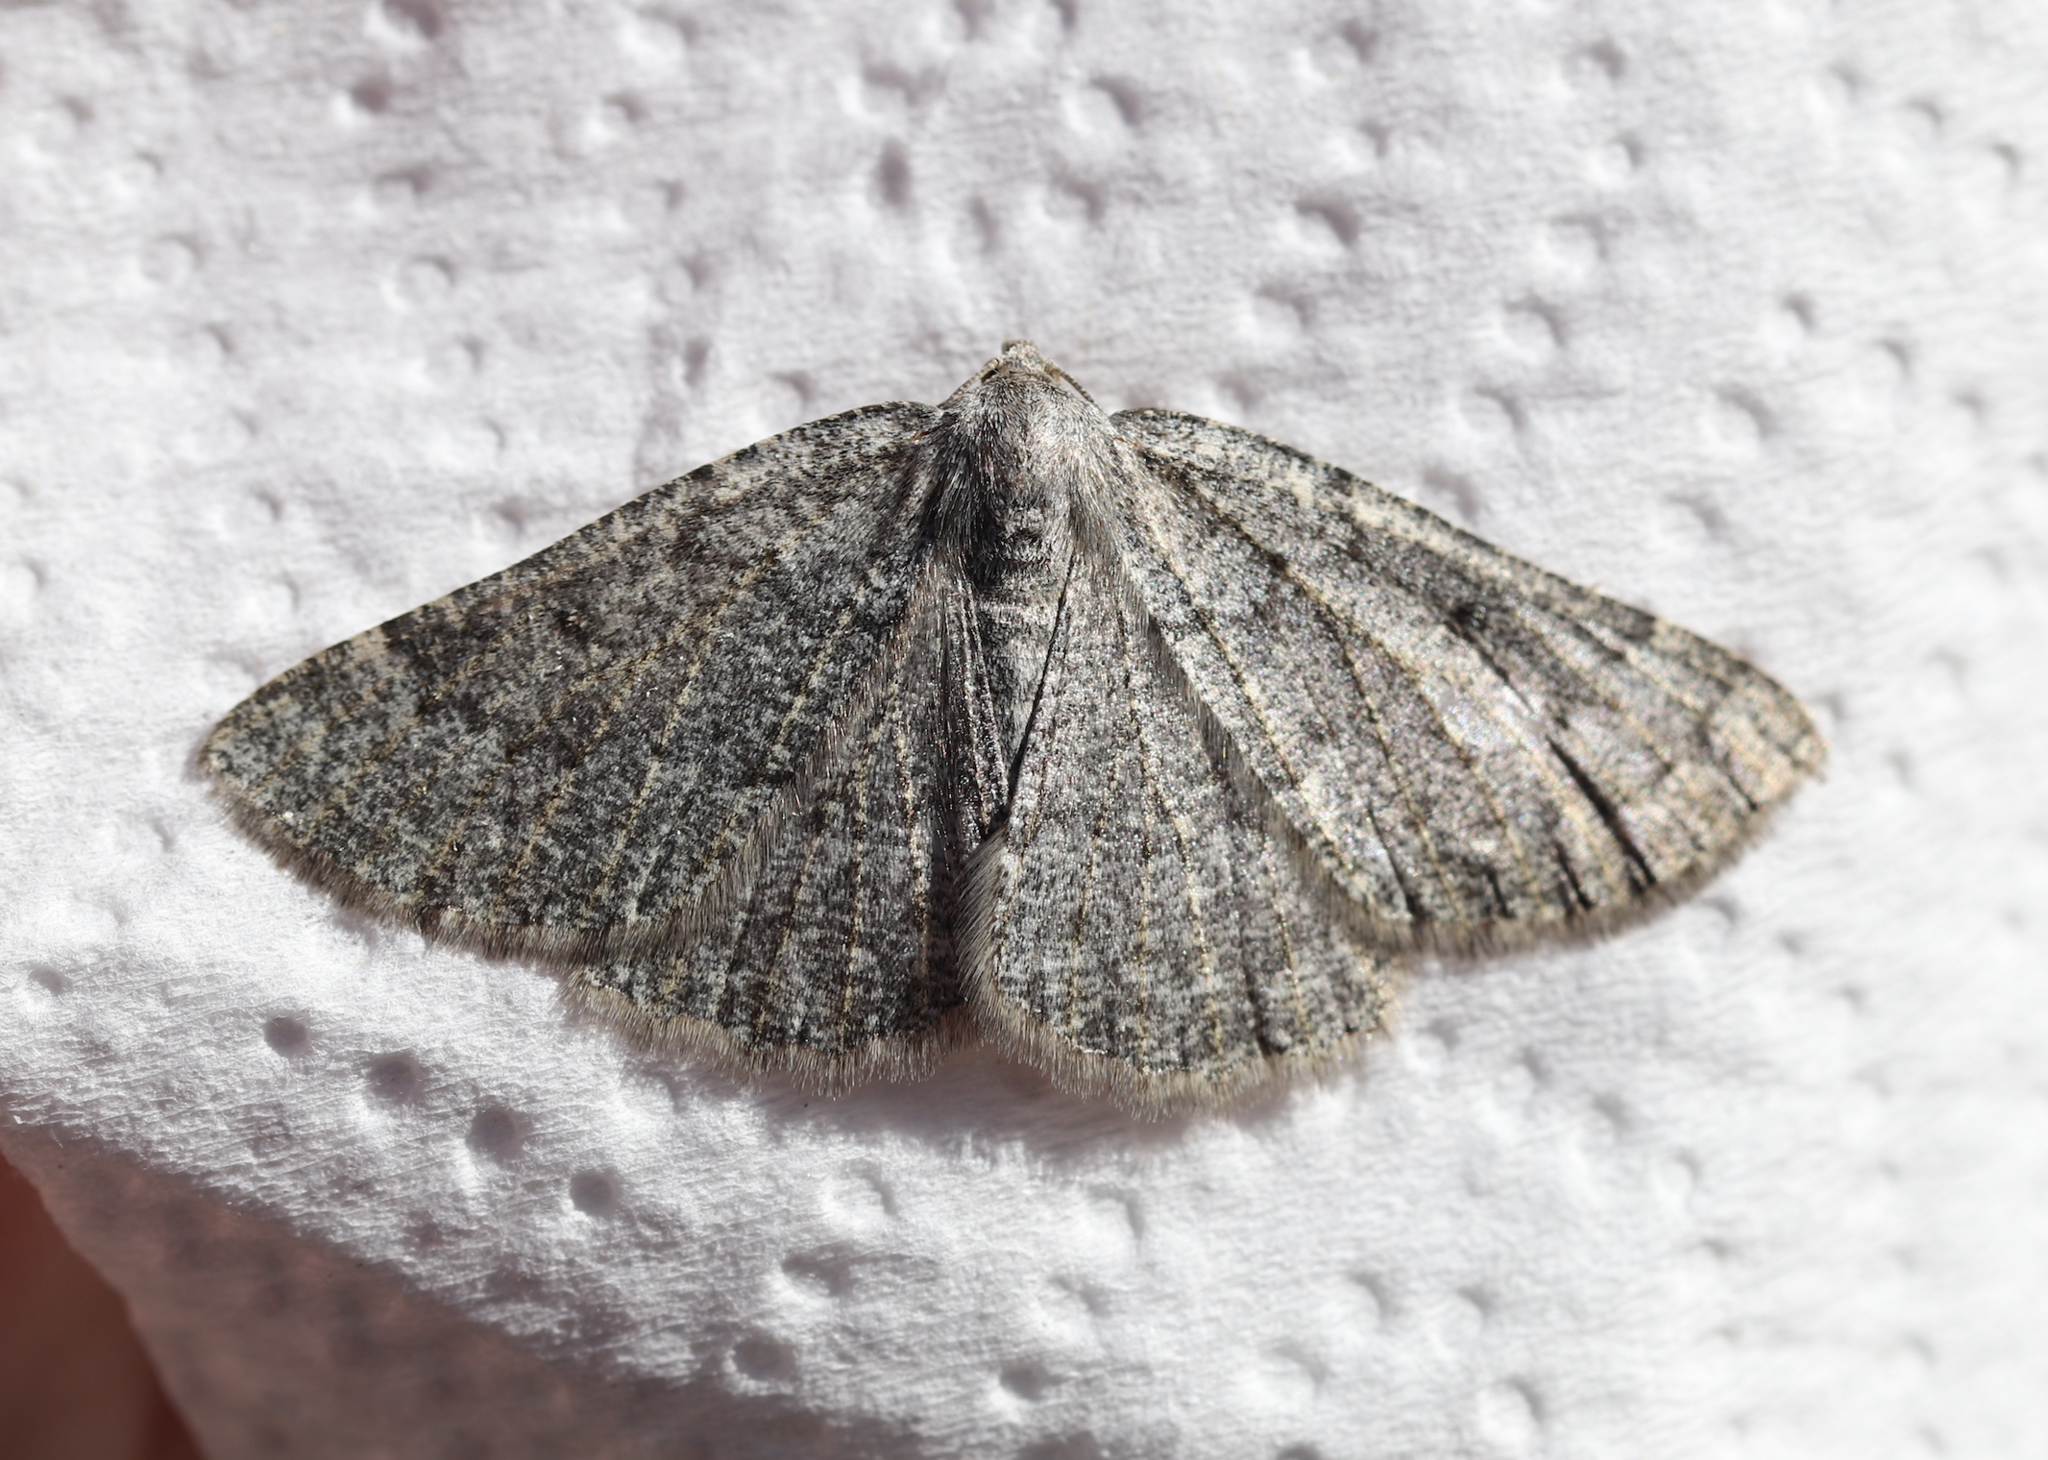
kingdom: Animalia
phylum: Arthropoda
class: Insecta
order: Lepidoptera
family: Geometridae
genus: Gnophos
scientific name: Gnophos obfuscata
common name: Scottish annulet
